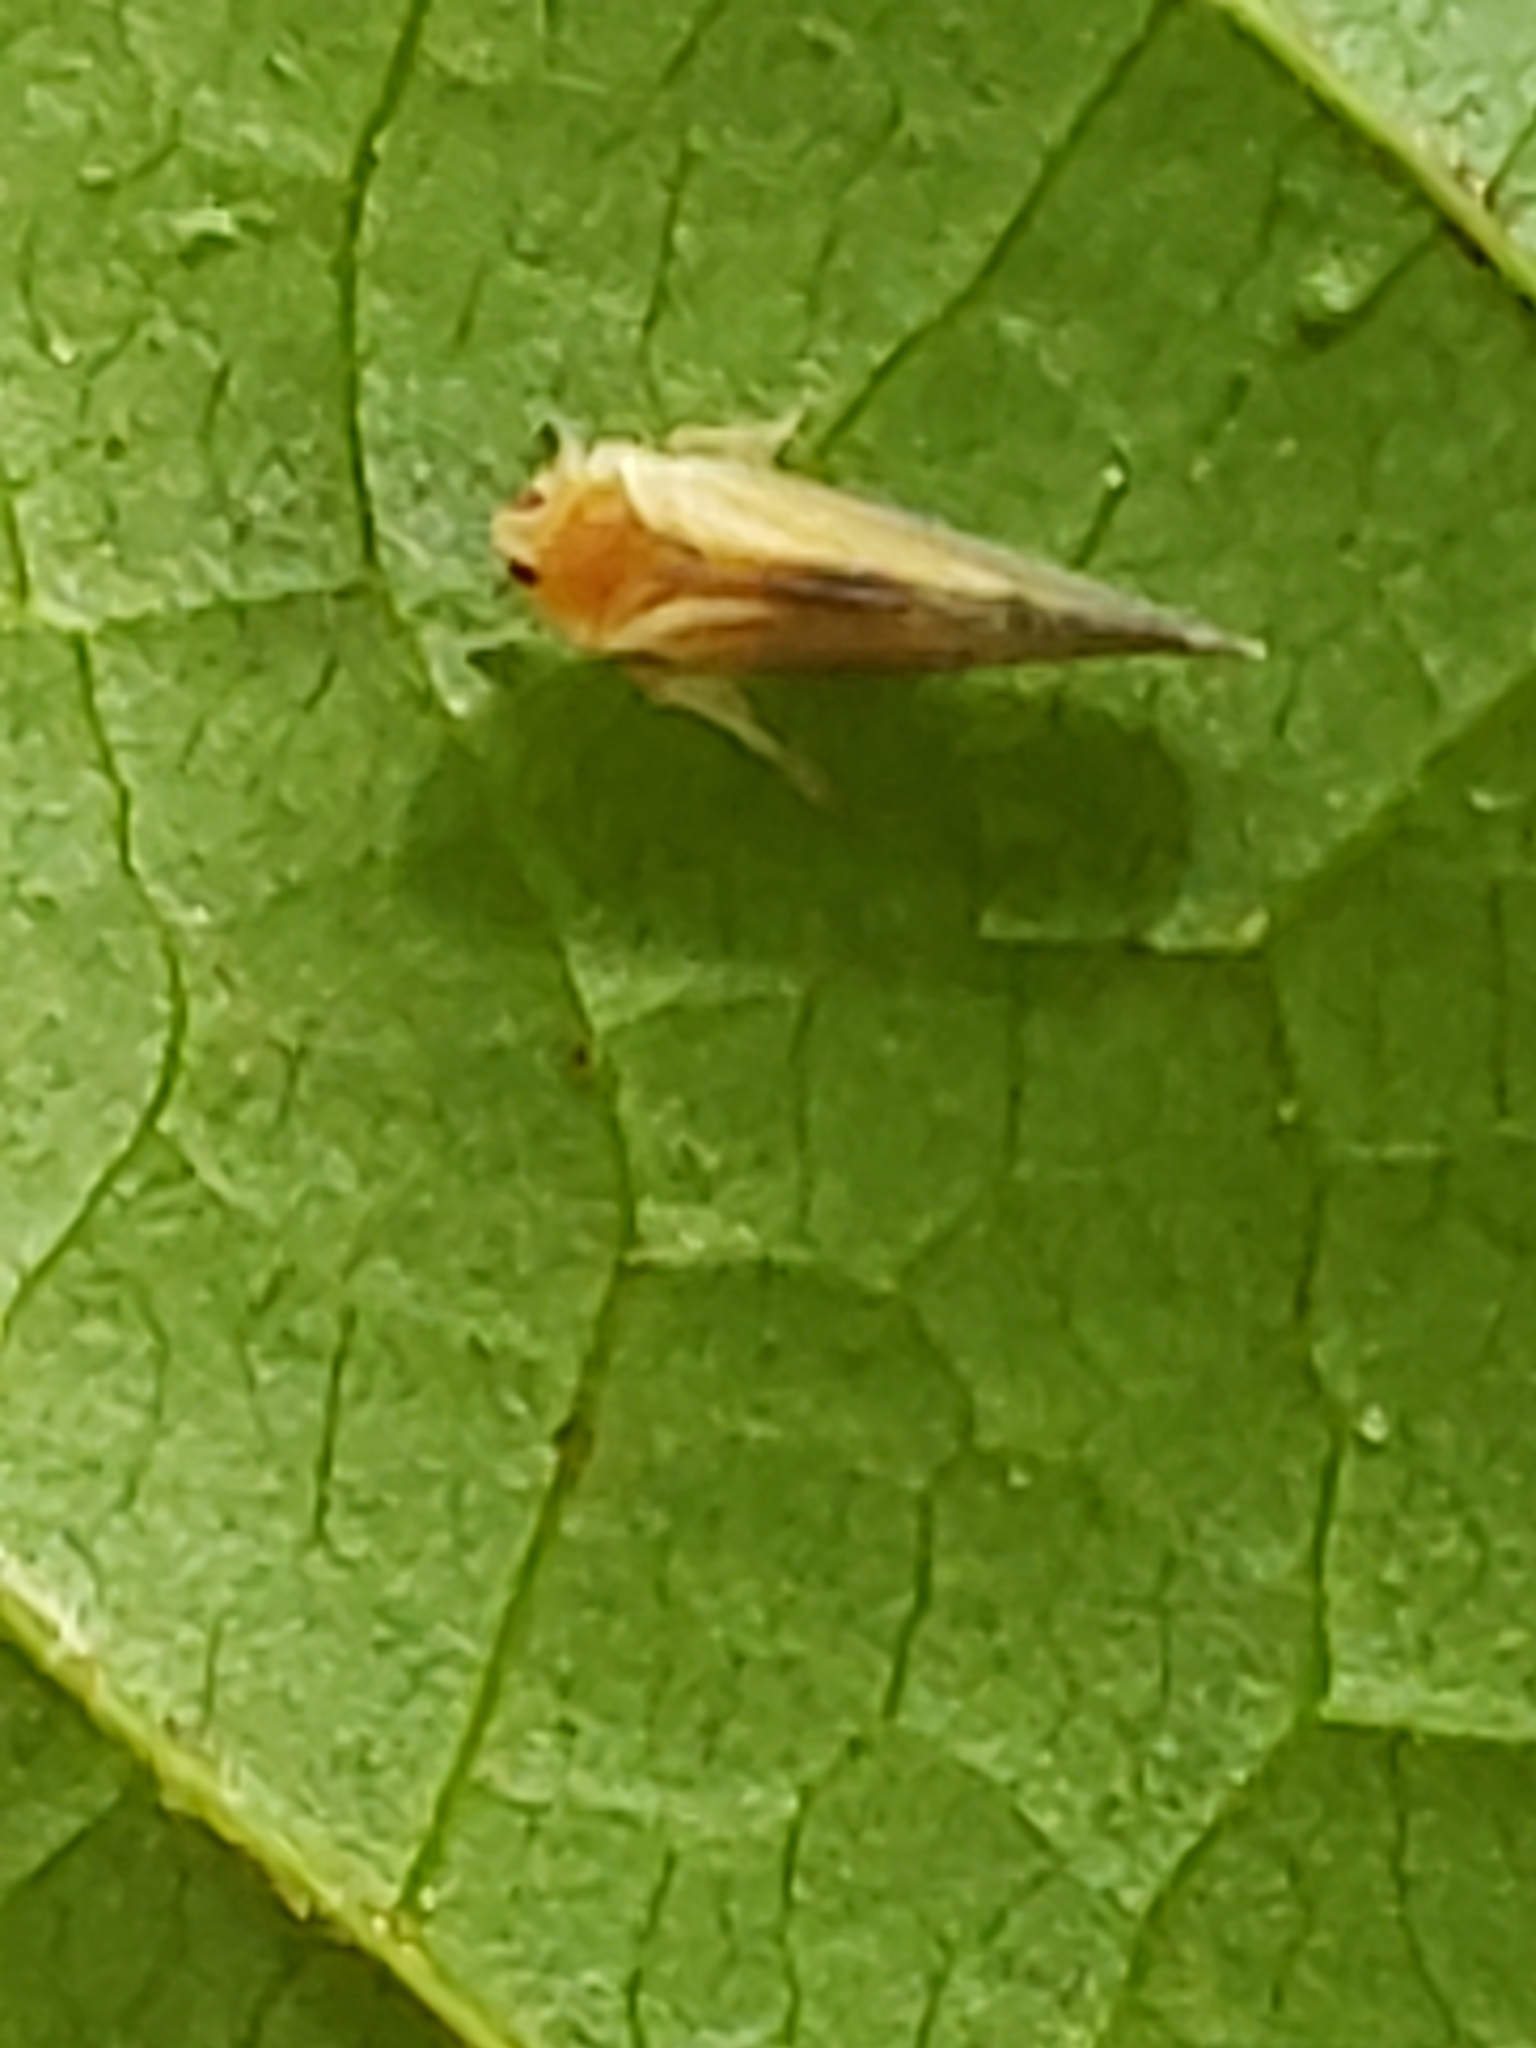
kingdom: Animalia
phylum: Arthropoda
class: Insecta
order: Hemiptera
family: Derbidae
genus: Omolicna
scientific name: Omolicna uhleri
